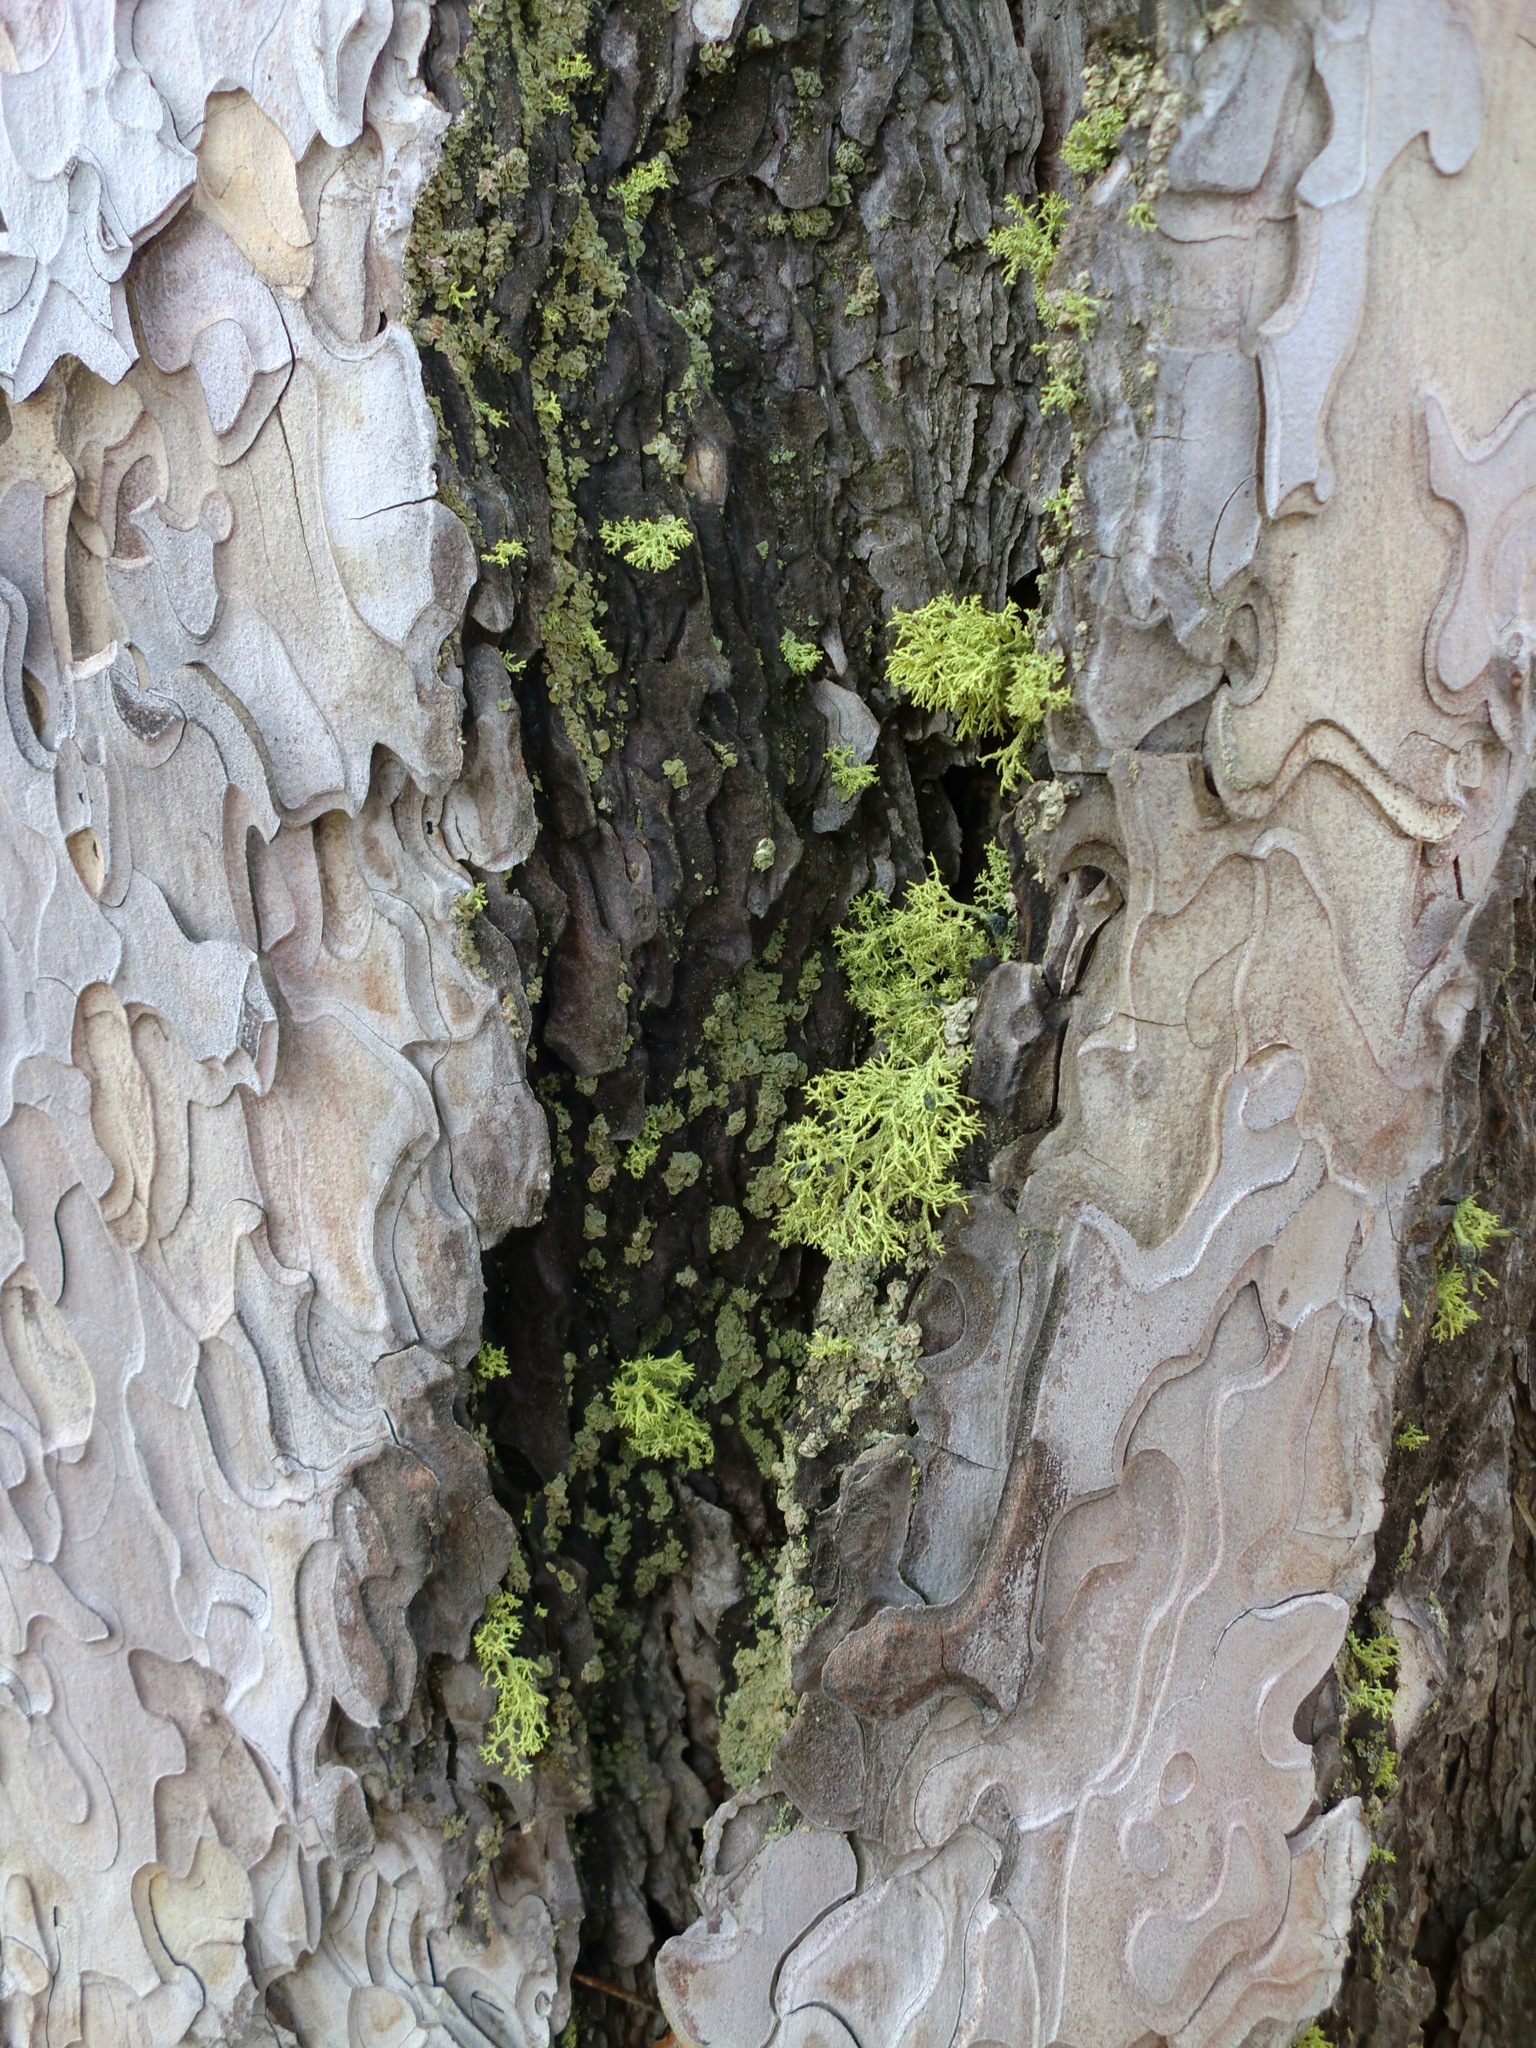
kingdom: Fungi
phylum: Ascomycota
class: Lecanoromycetes
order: Lecanorales
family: Parmeliaceae
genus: Letharia
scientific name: Letharia vulpina
